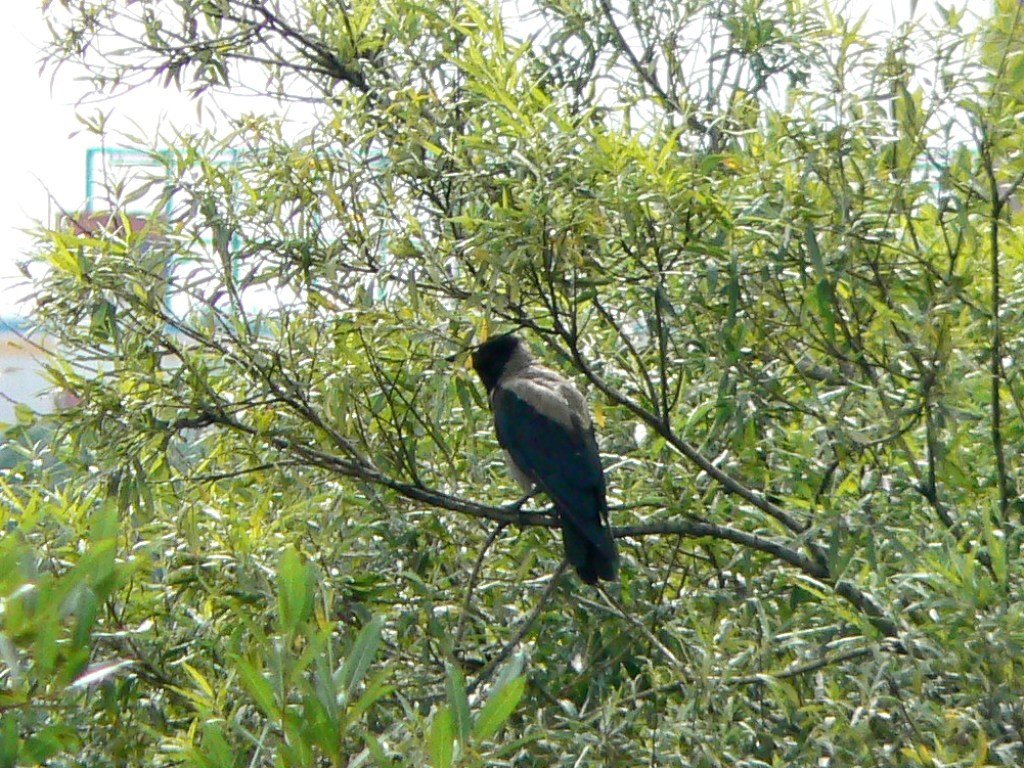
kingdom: Animalia
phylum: Chordata
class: Aves
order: Passeriformes
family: Corvidae
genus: Corvus
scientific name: Corvus cornix
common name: Hooded crow
